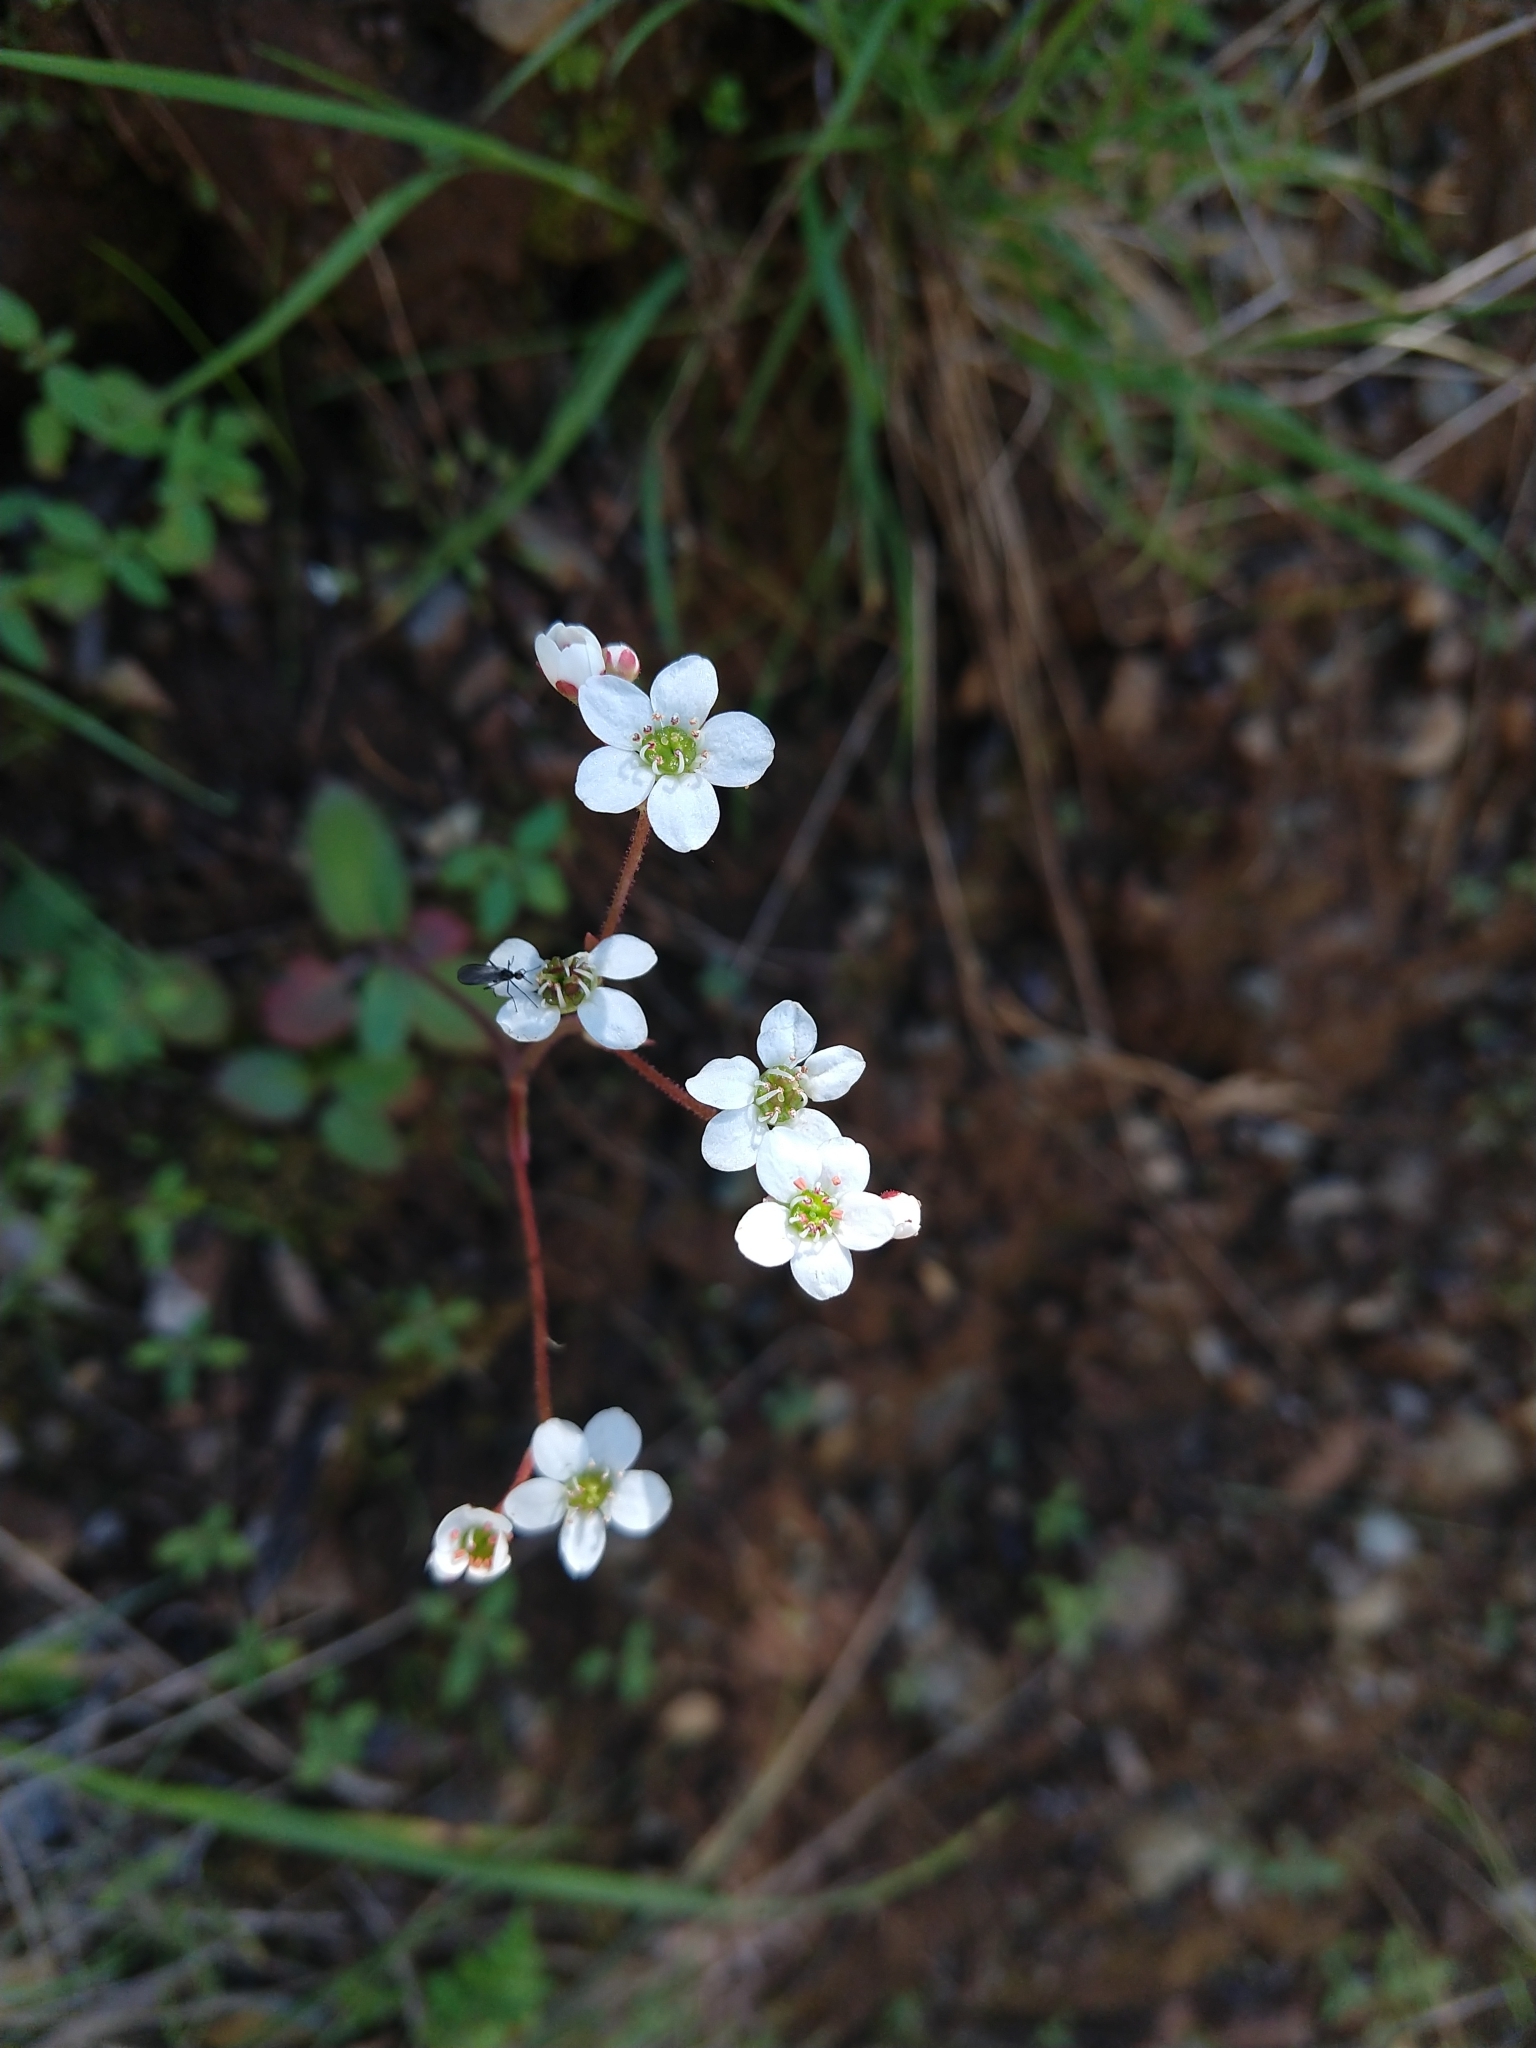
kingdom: Plantae
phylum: Tracheophyta
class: Magnoliopsida
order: Saxifragales
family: Saxifragaceae
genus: Micranthes
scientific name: Micranthes californica
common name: California saxifrage
